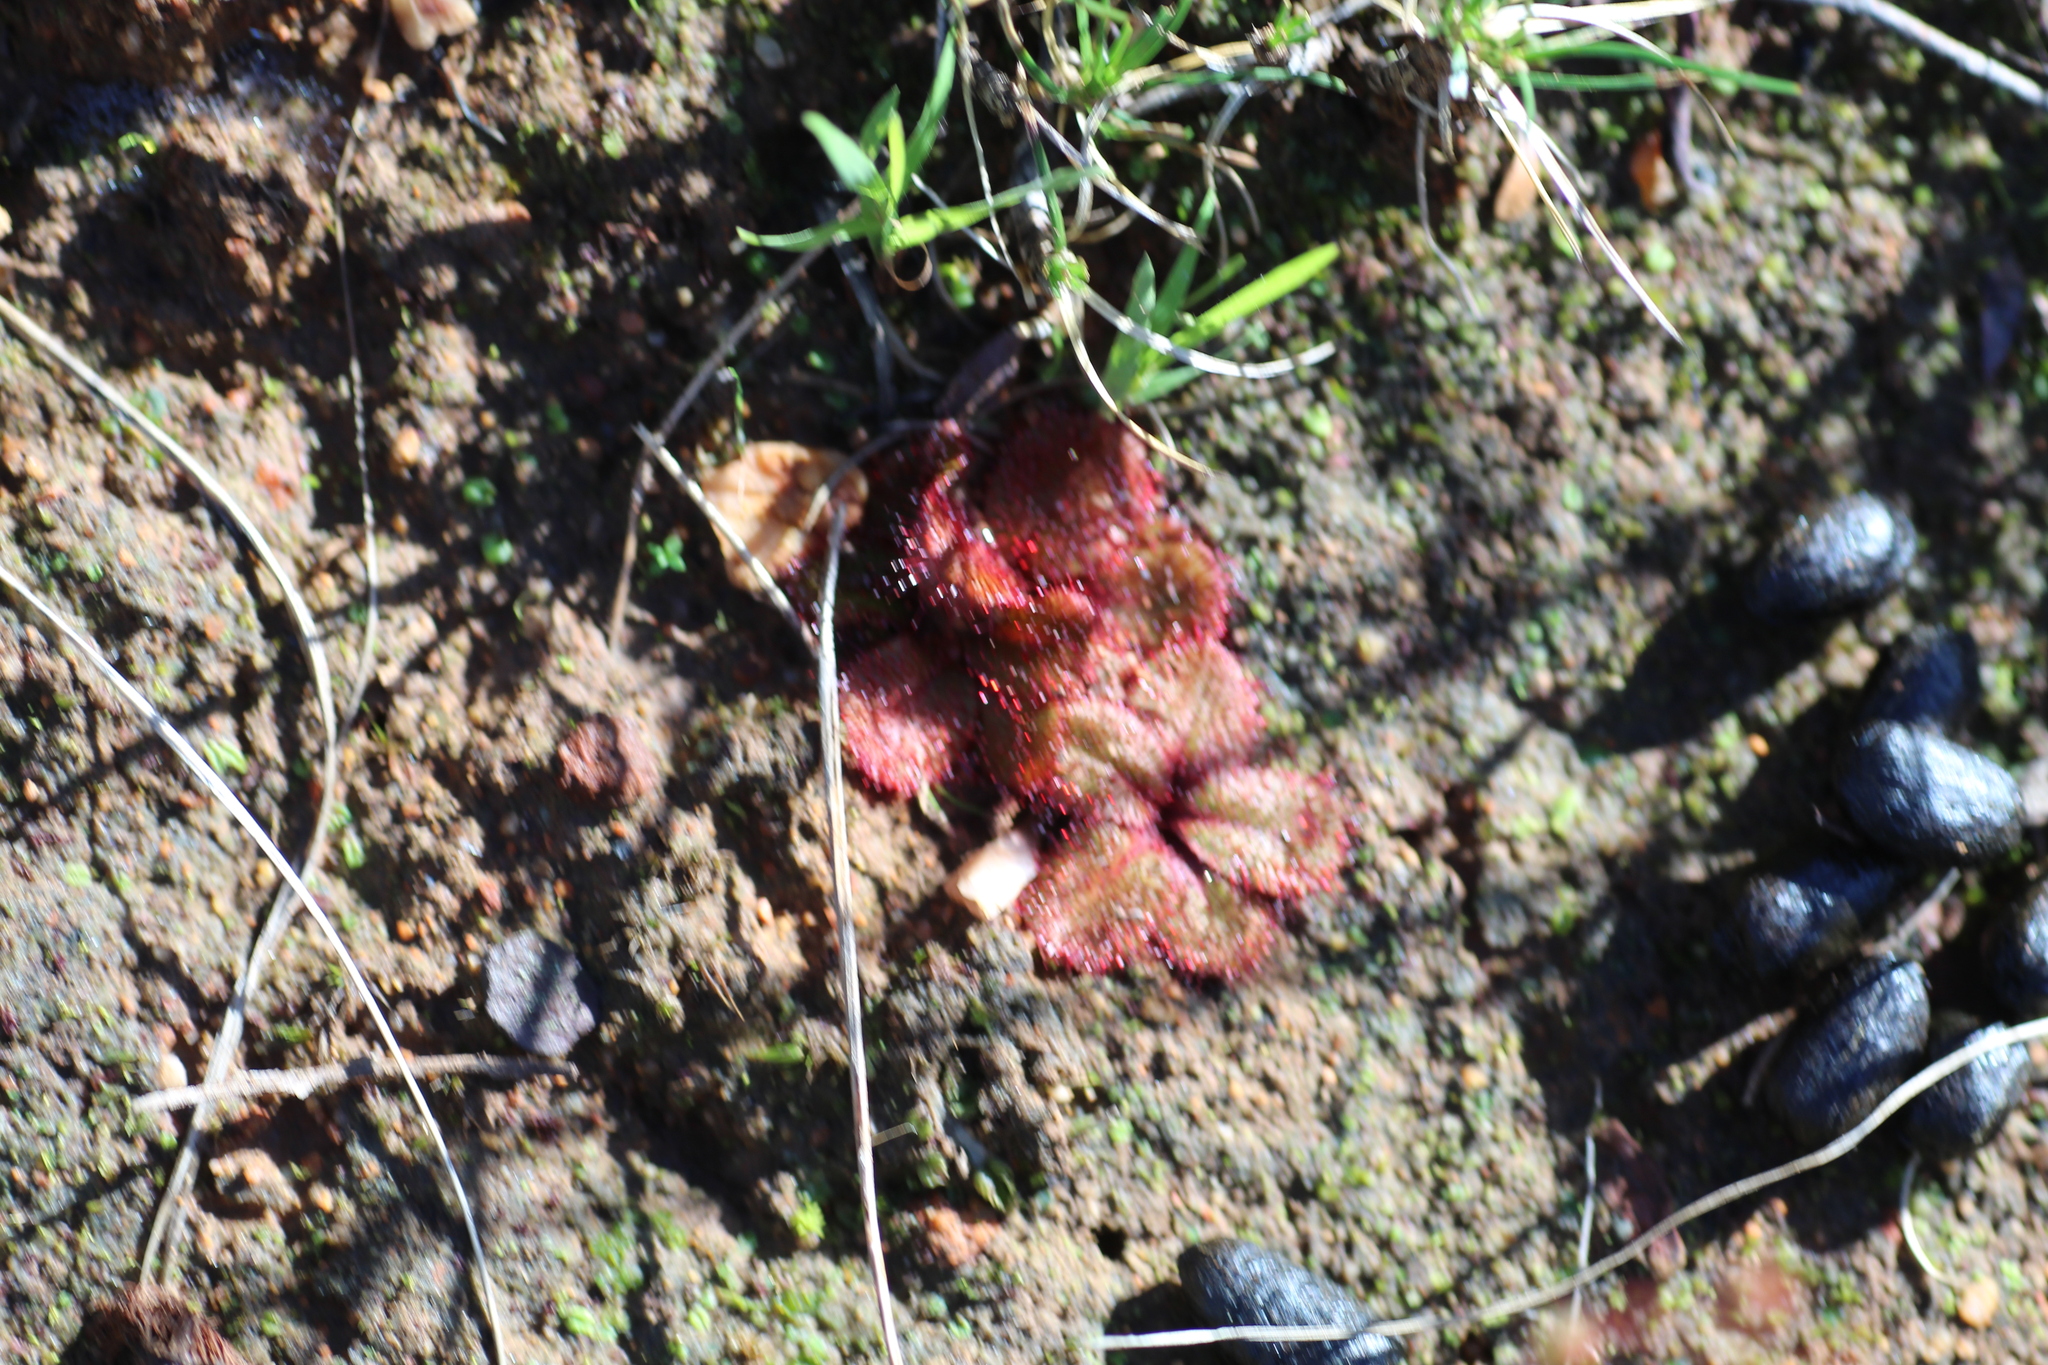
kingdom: Plantae
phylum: Tracheophyta
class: Magnoliopsida
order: Caryophyllales
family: Droseraceae
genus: Drosera
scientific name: Drosera rosulata
